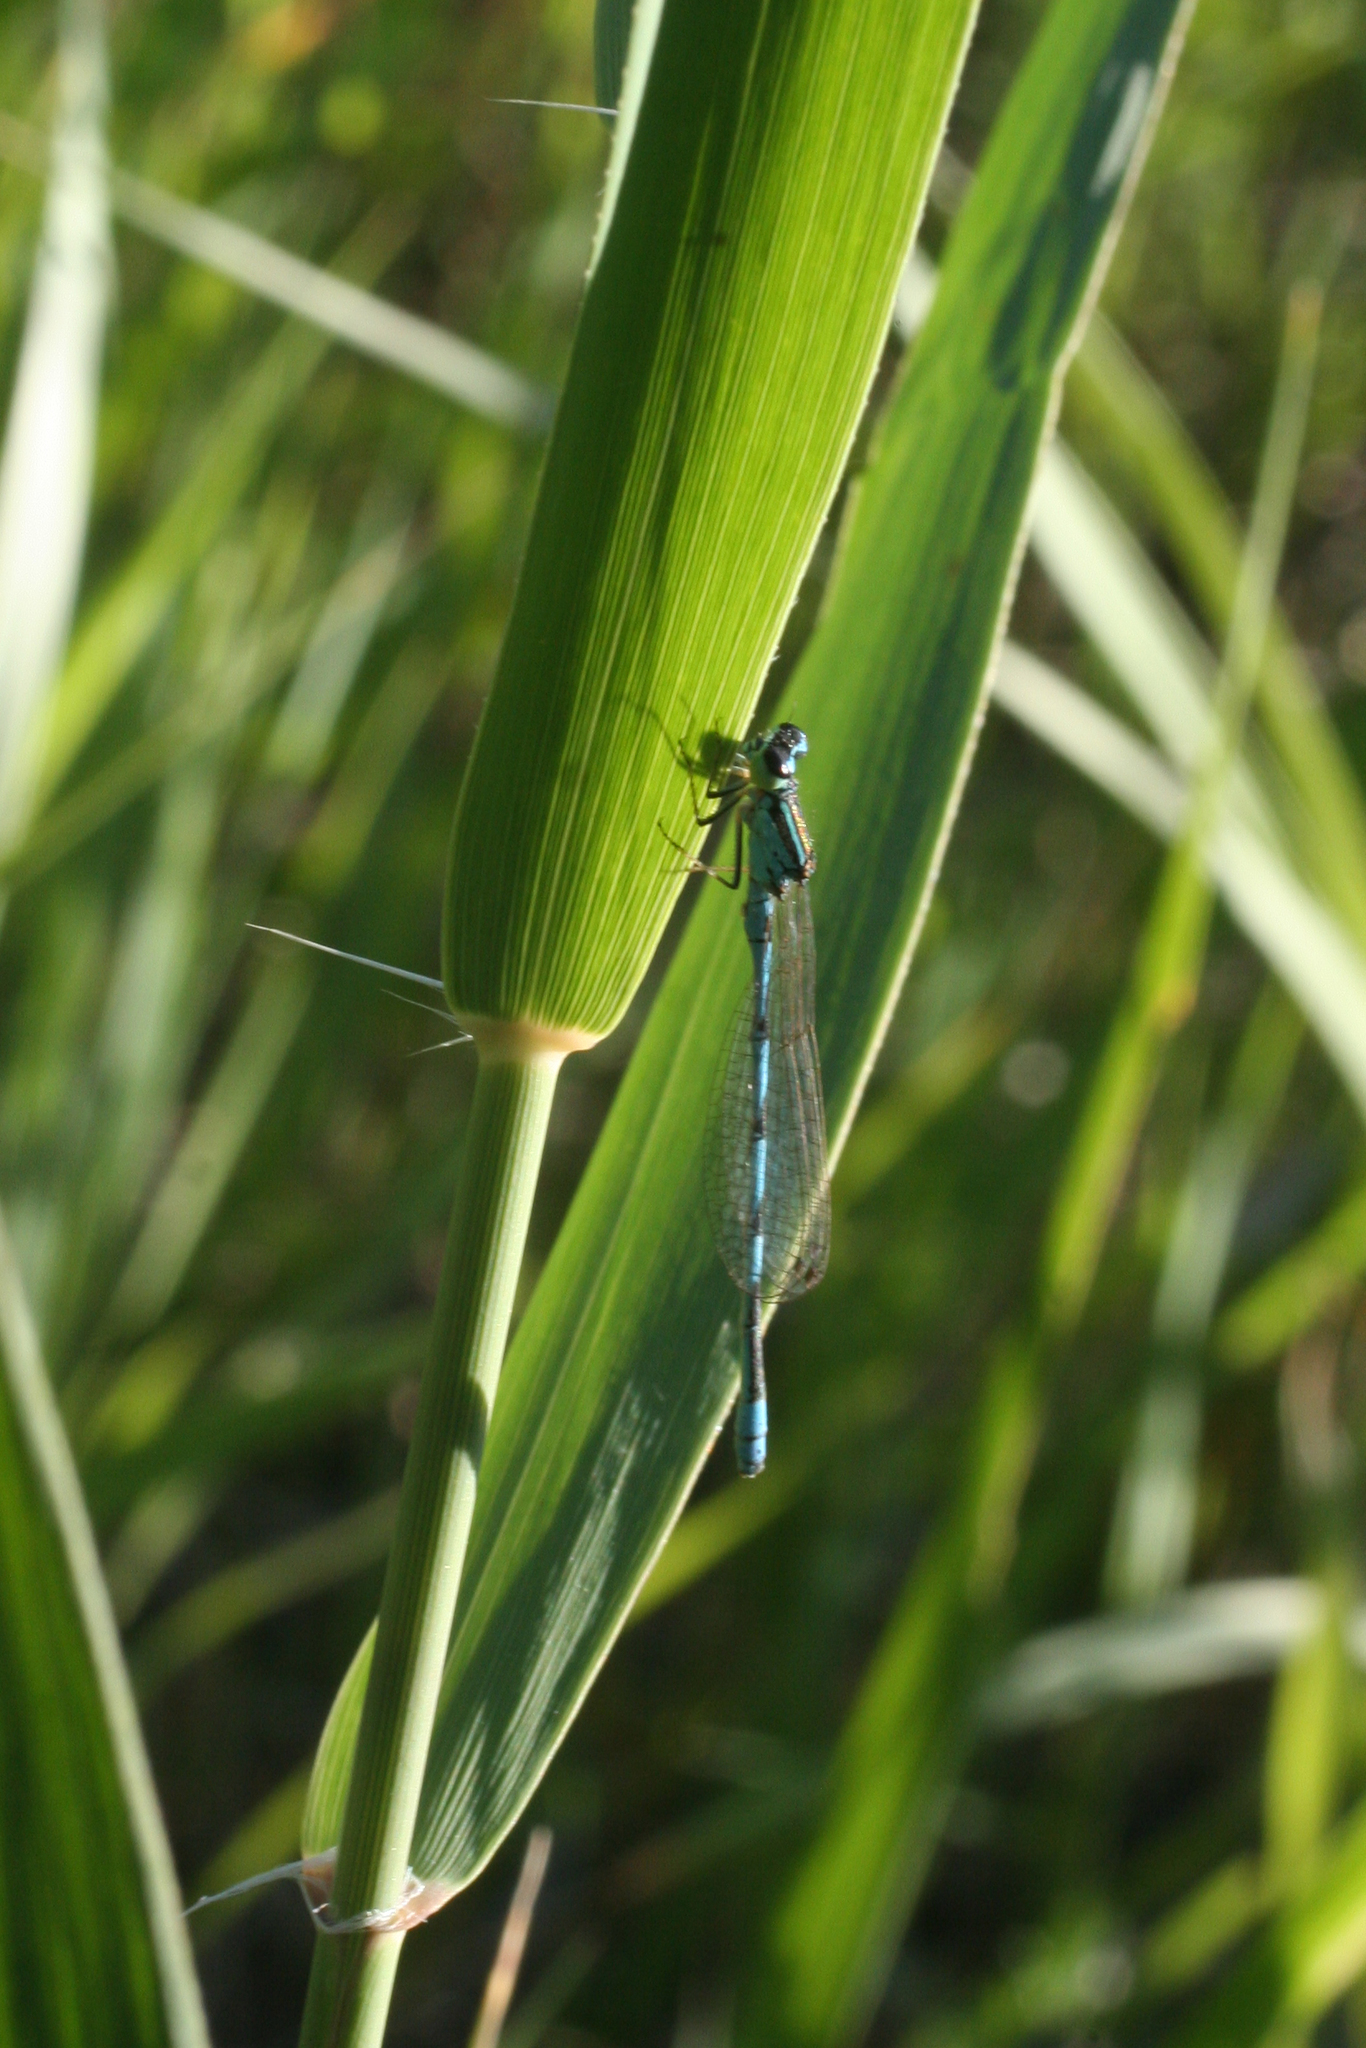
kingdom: Animalia
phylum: Arthropoda
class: Insecta
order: Odonata
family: Coenagrionidae
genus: Coenagrion
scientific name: Coenagrion ecornutum
